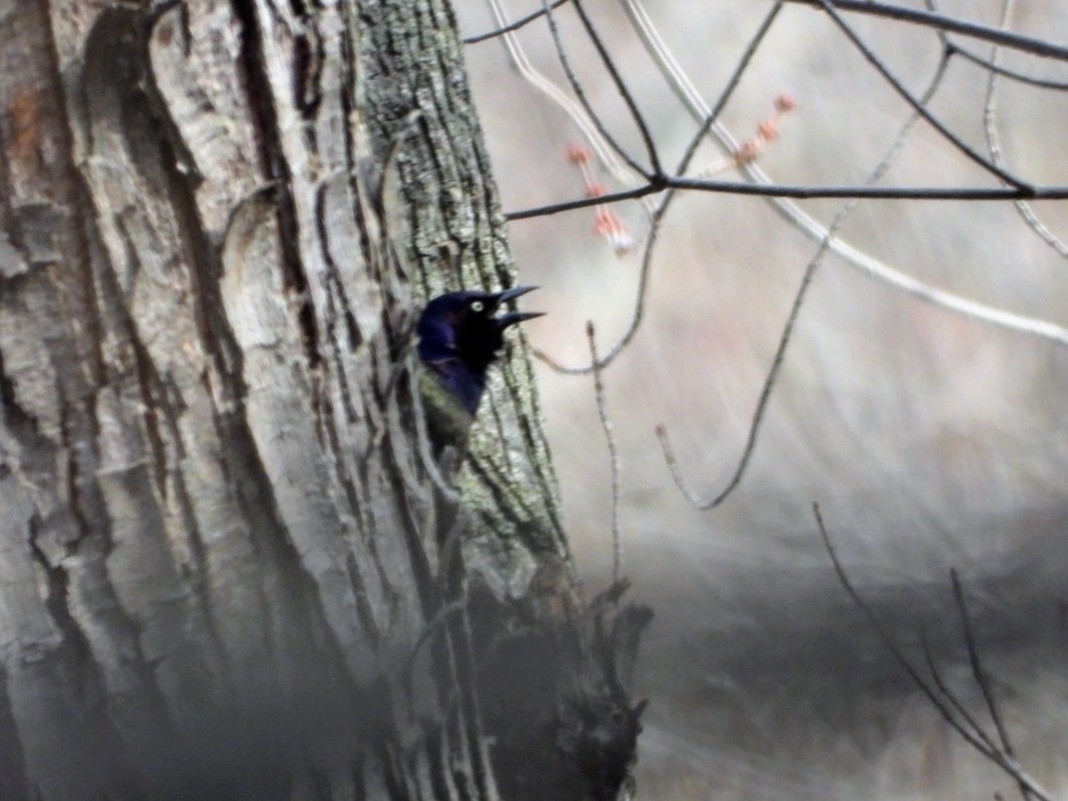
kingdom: Animalia
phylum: Chordata
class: Aves
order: Passeriformes
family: Icteridae
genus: Quiscalus
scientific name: Quiscalus quiscula
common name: Common grackle
